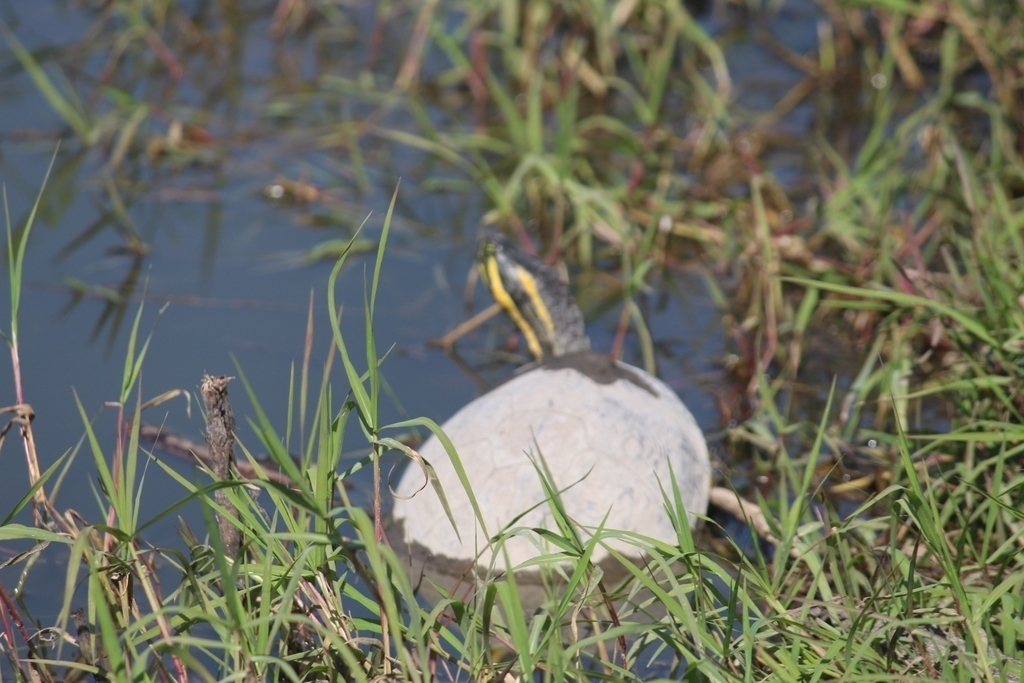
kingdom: Animalia
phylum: Chordata
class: Testudines
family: Emydidae
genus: Trachemys
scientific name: Trachemys venusta
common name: Mesoamerican slider
